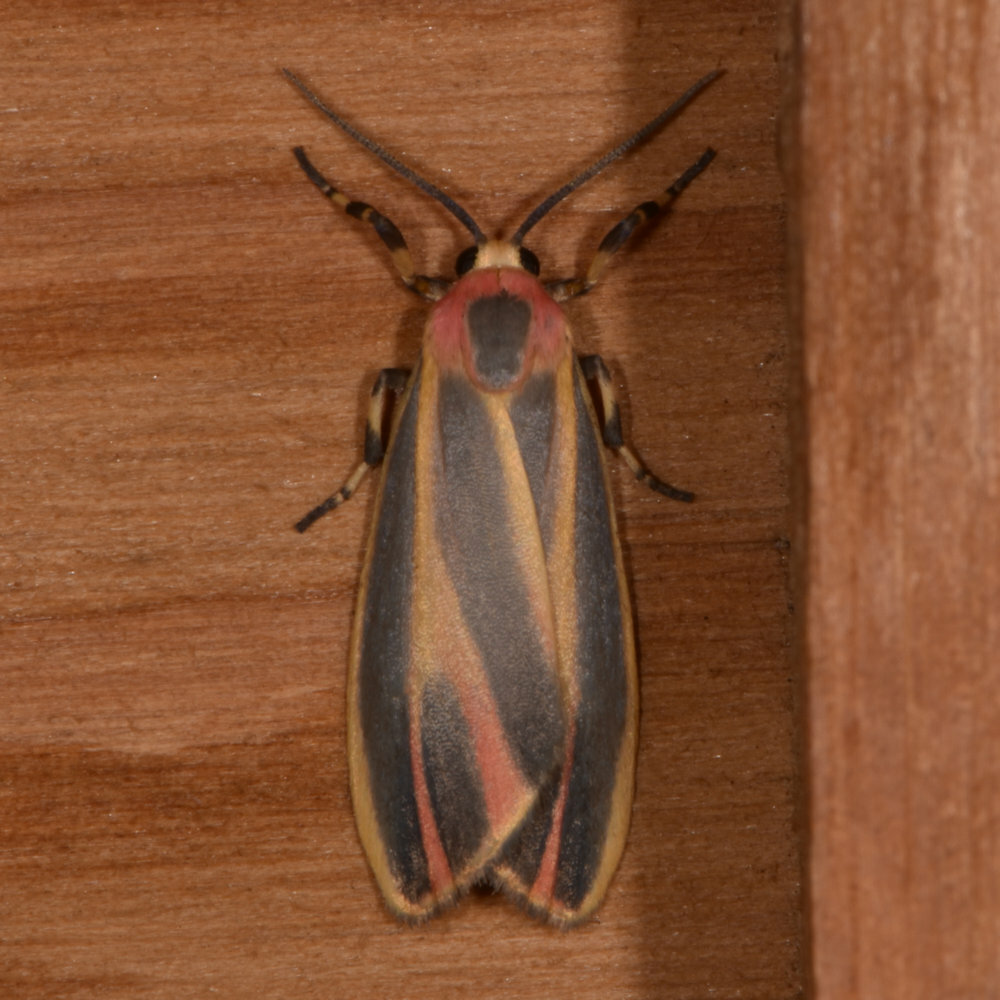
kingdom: Animalia
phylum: Arthropoda
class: Insecta
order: Lepidoptera
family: Erebidae
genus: Hypoprepia
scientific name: Hypoprepia fucosa
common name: Painted lichen moth
